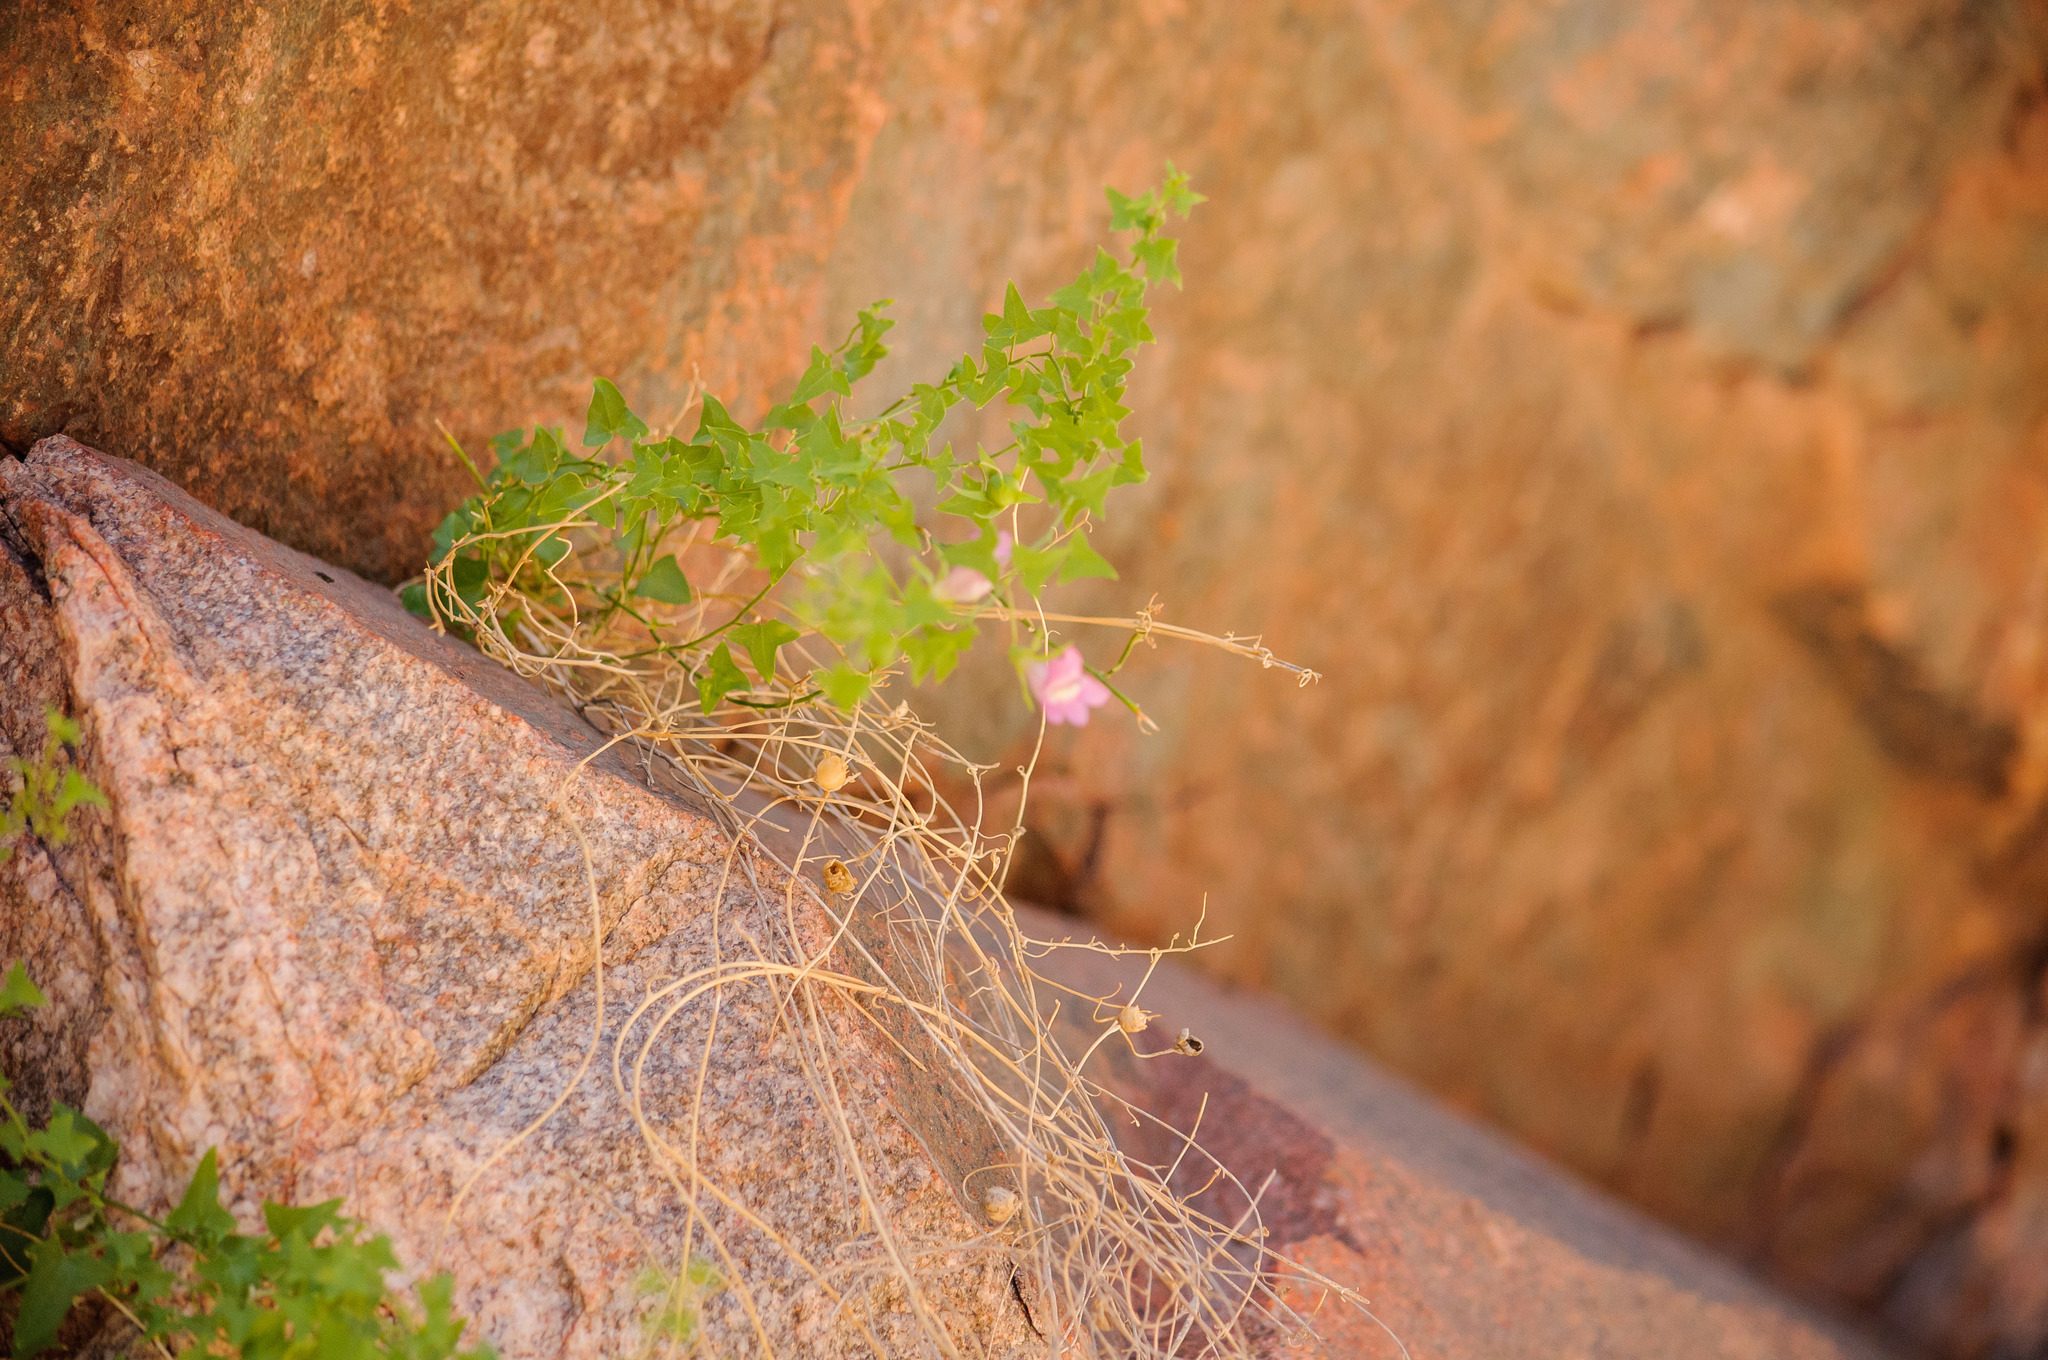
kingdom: Plantae
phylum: Tracheophyta
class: Magnoliopsida
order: Lamiales
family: Plantaginaceae
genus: Maurandella
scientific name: Maurandella antirrhiniflora
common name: Violet twining-snapdragon
